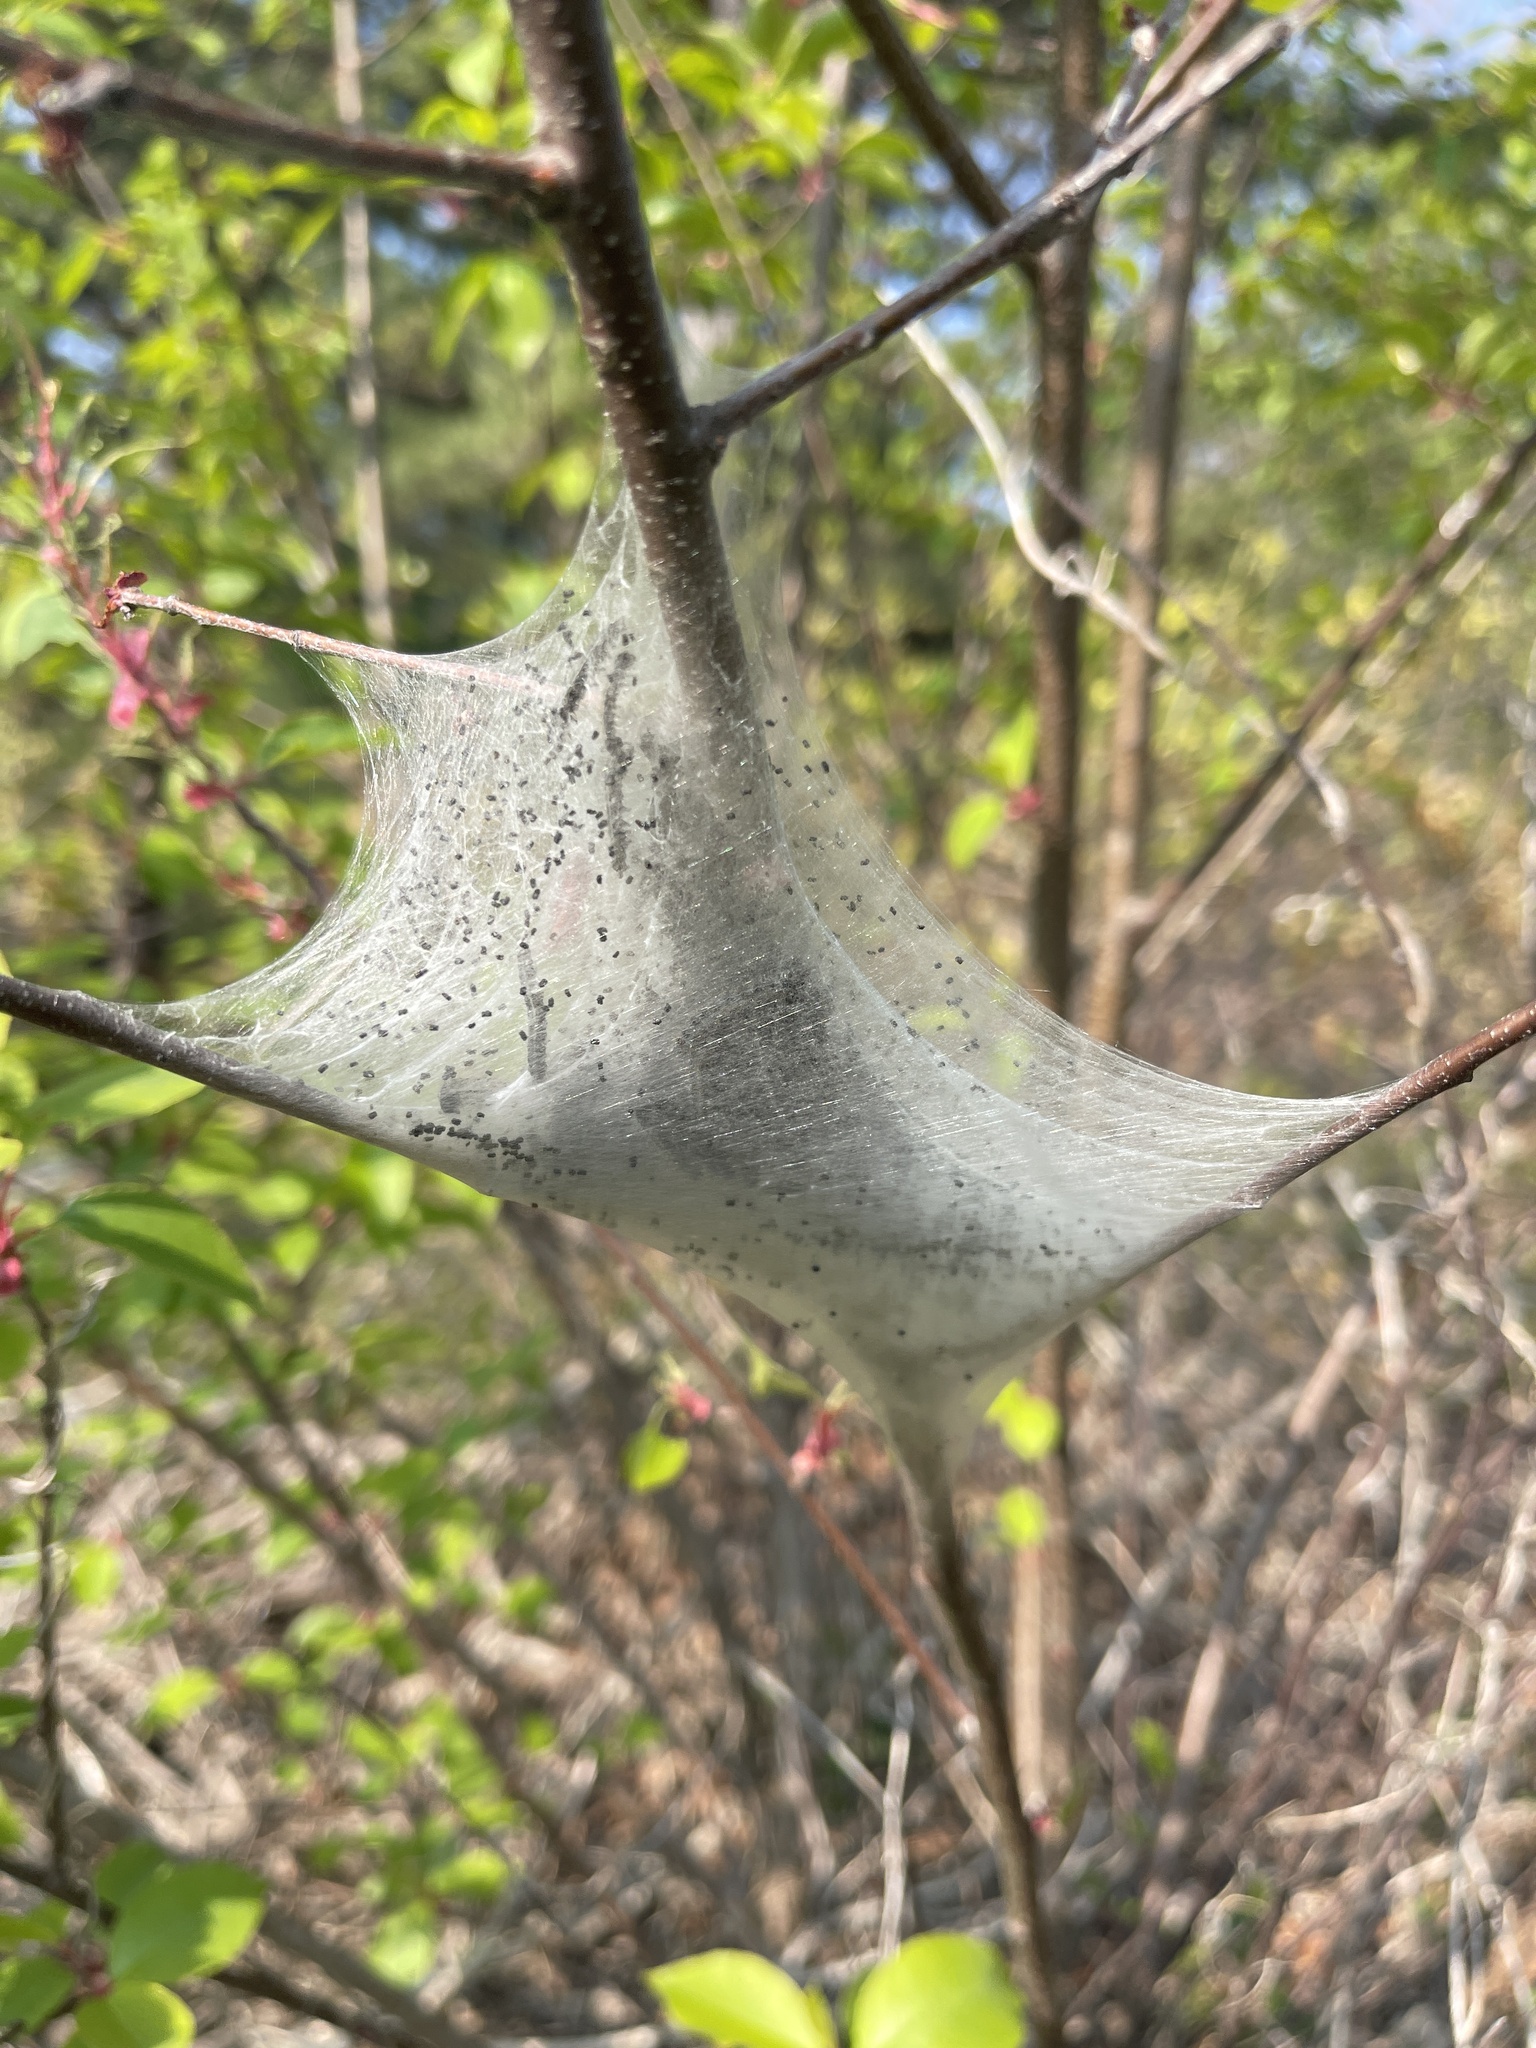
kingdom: Animalia
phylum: Arthropoda
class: Insecta
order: Lepidoptera
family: Lasiocampidae
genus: Malacosoma
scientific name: Malacosoma americana
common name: Eastern tent caterpillar moth
